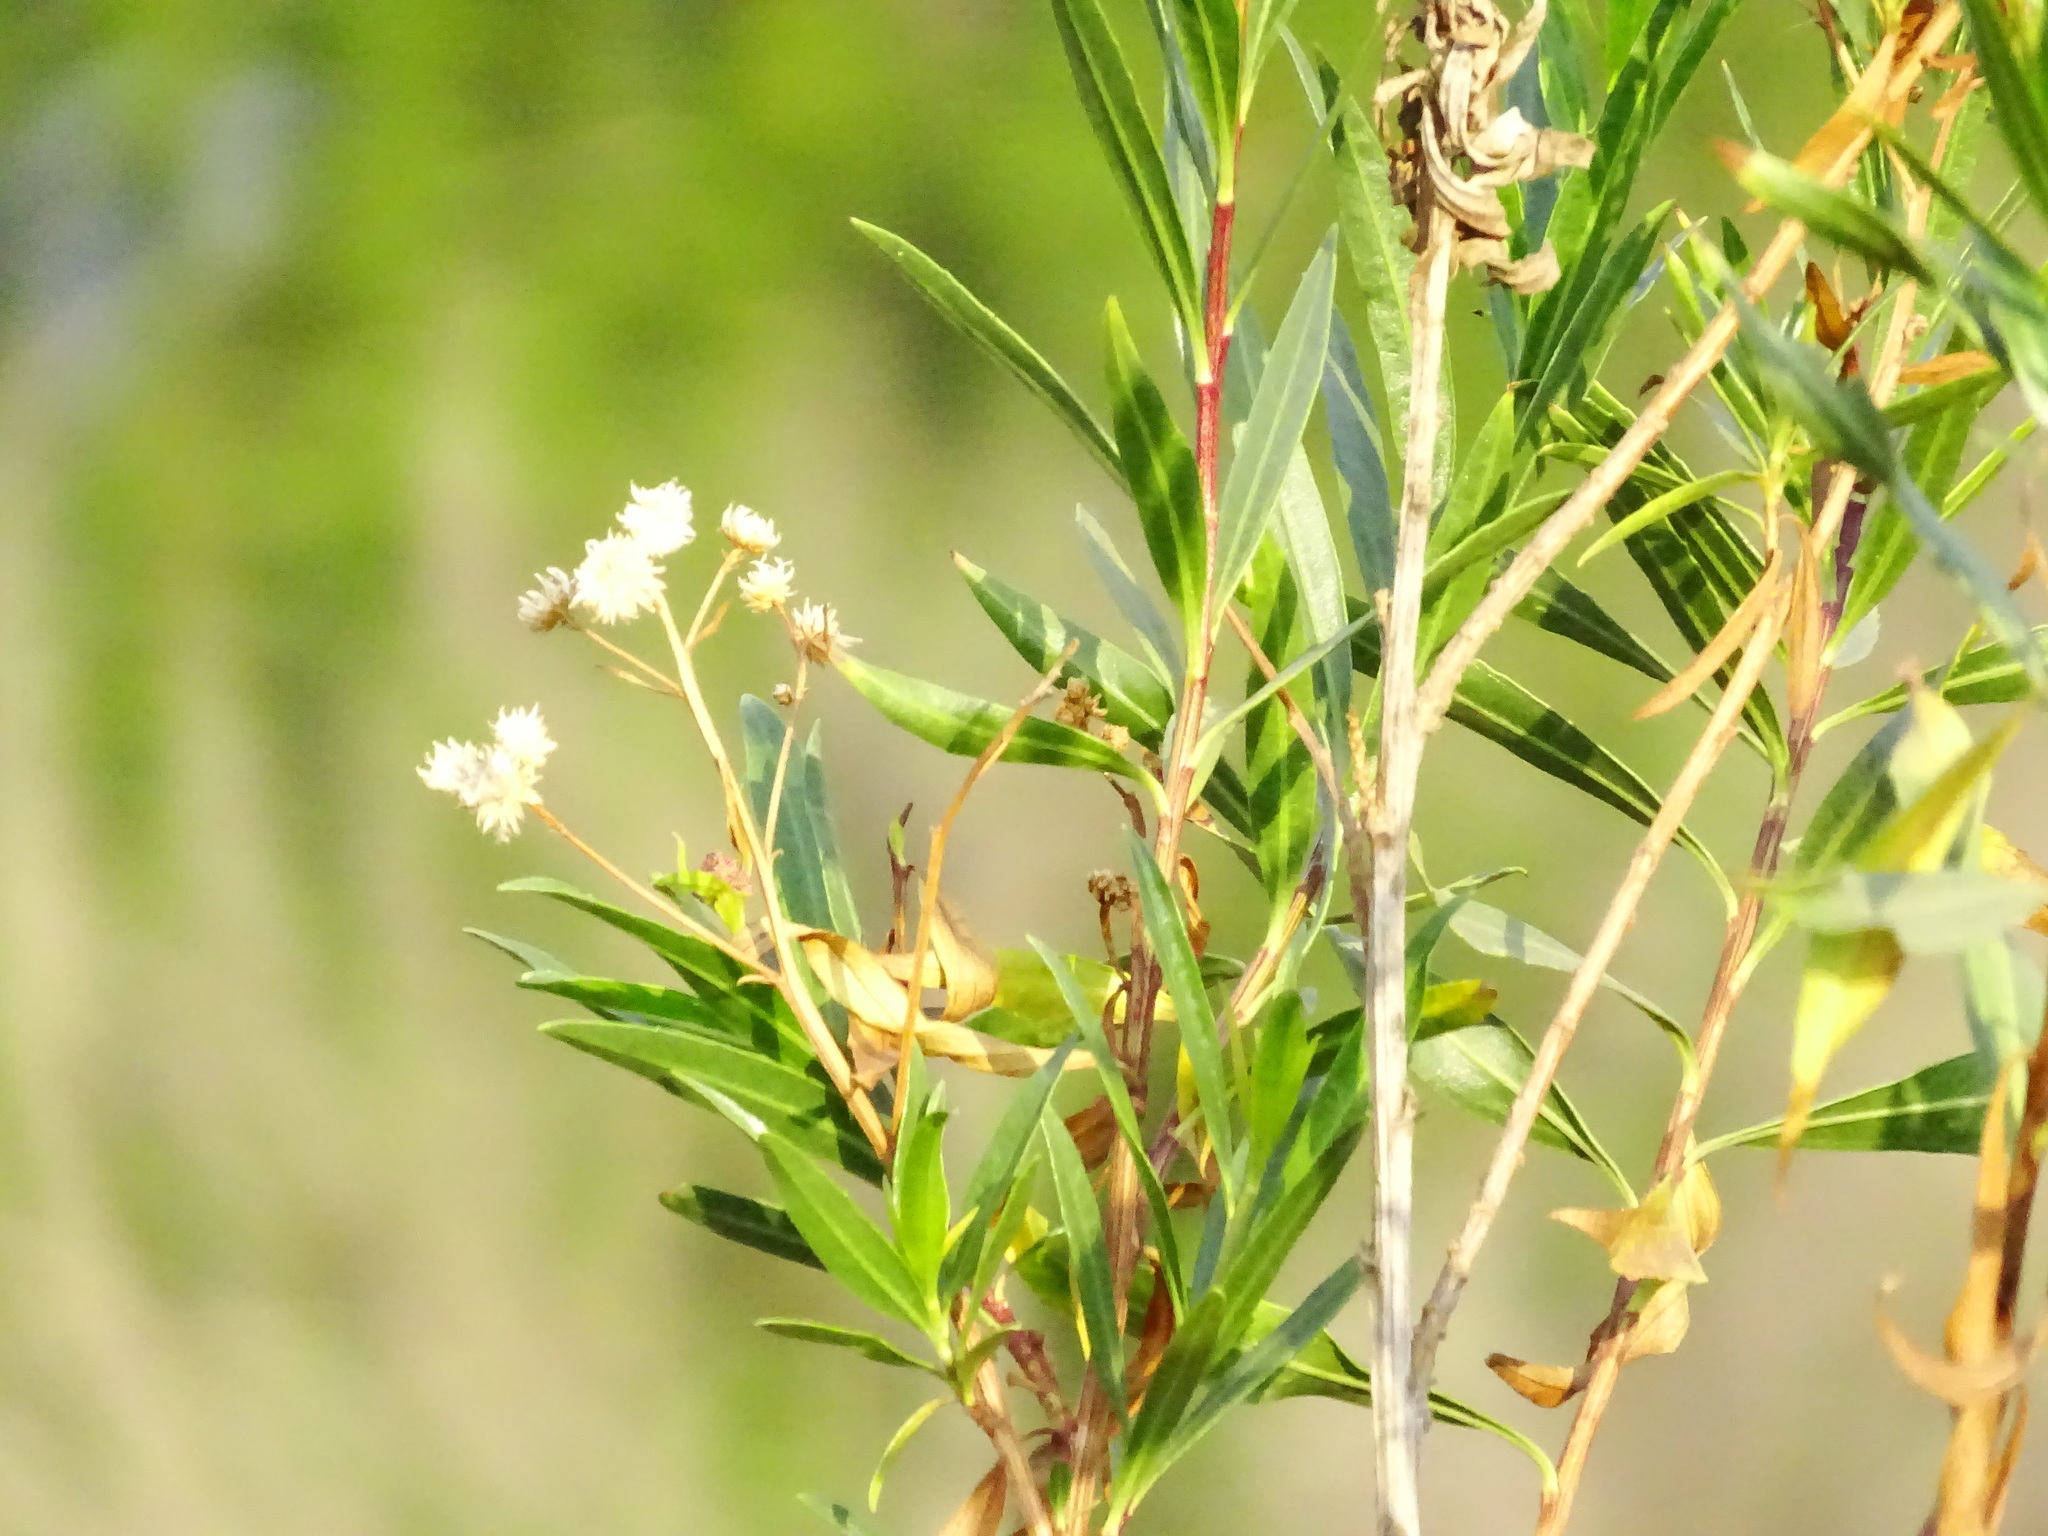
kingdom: Plantae
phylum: Tracheophyta
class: Magnoliopsida
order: Asterales
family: Asteraceae
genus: Baccharis
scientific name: Baccharis salicifolia
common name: Sticky baccharis
